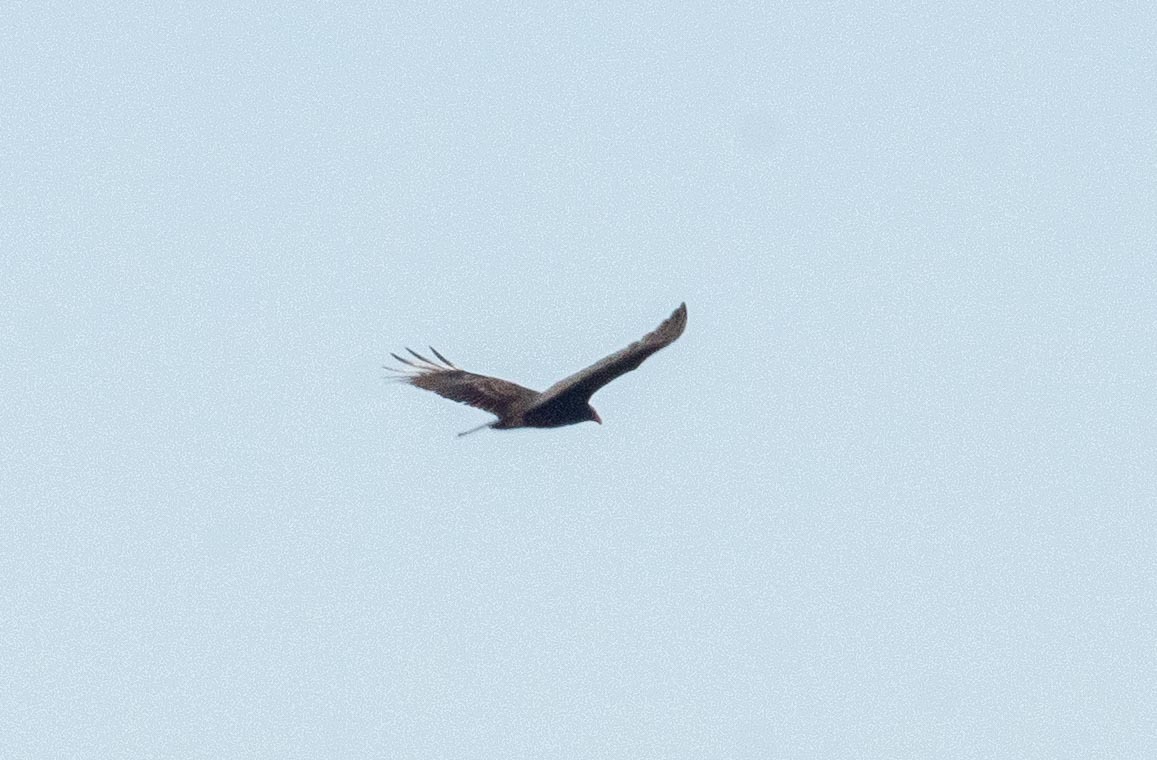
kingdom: Animalia
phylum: Chordata
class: Aves
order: Accipitriformes
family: Cathartidae
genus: Cathartes
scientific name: Cathartes aura
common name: Turkey vulture
